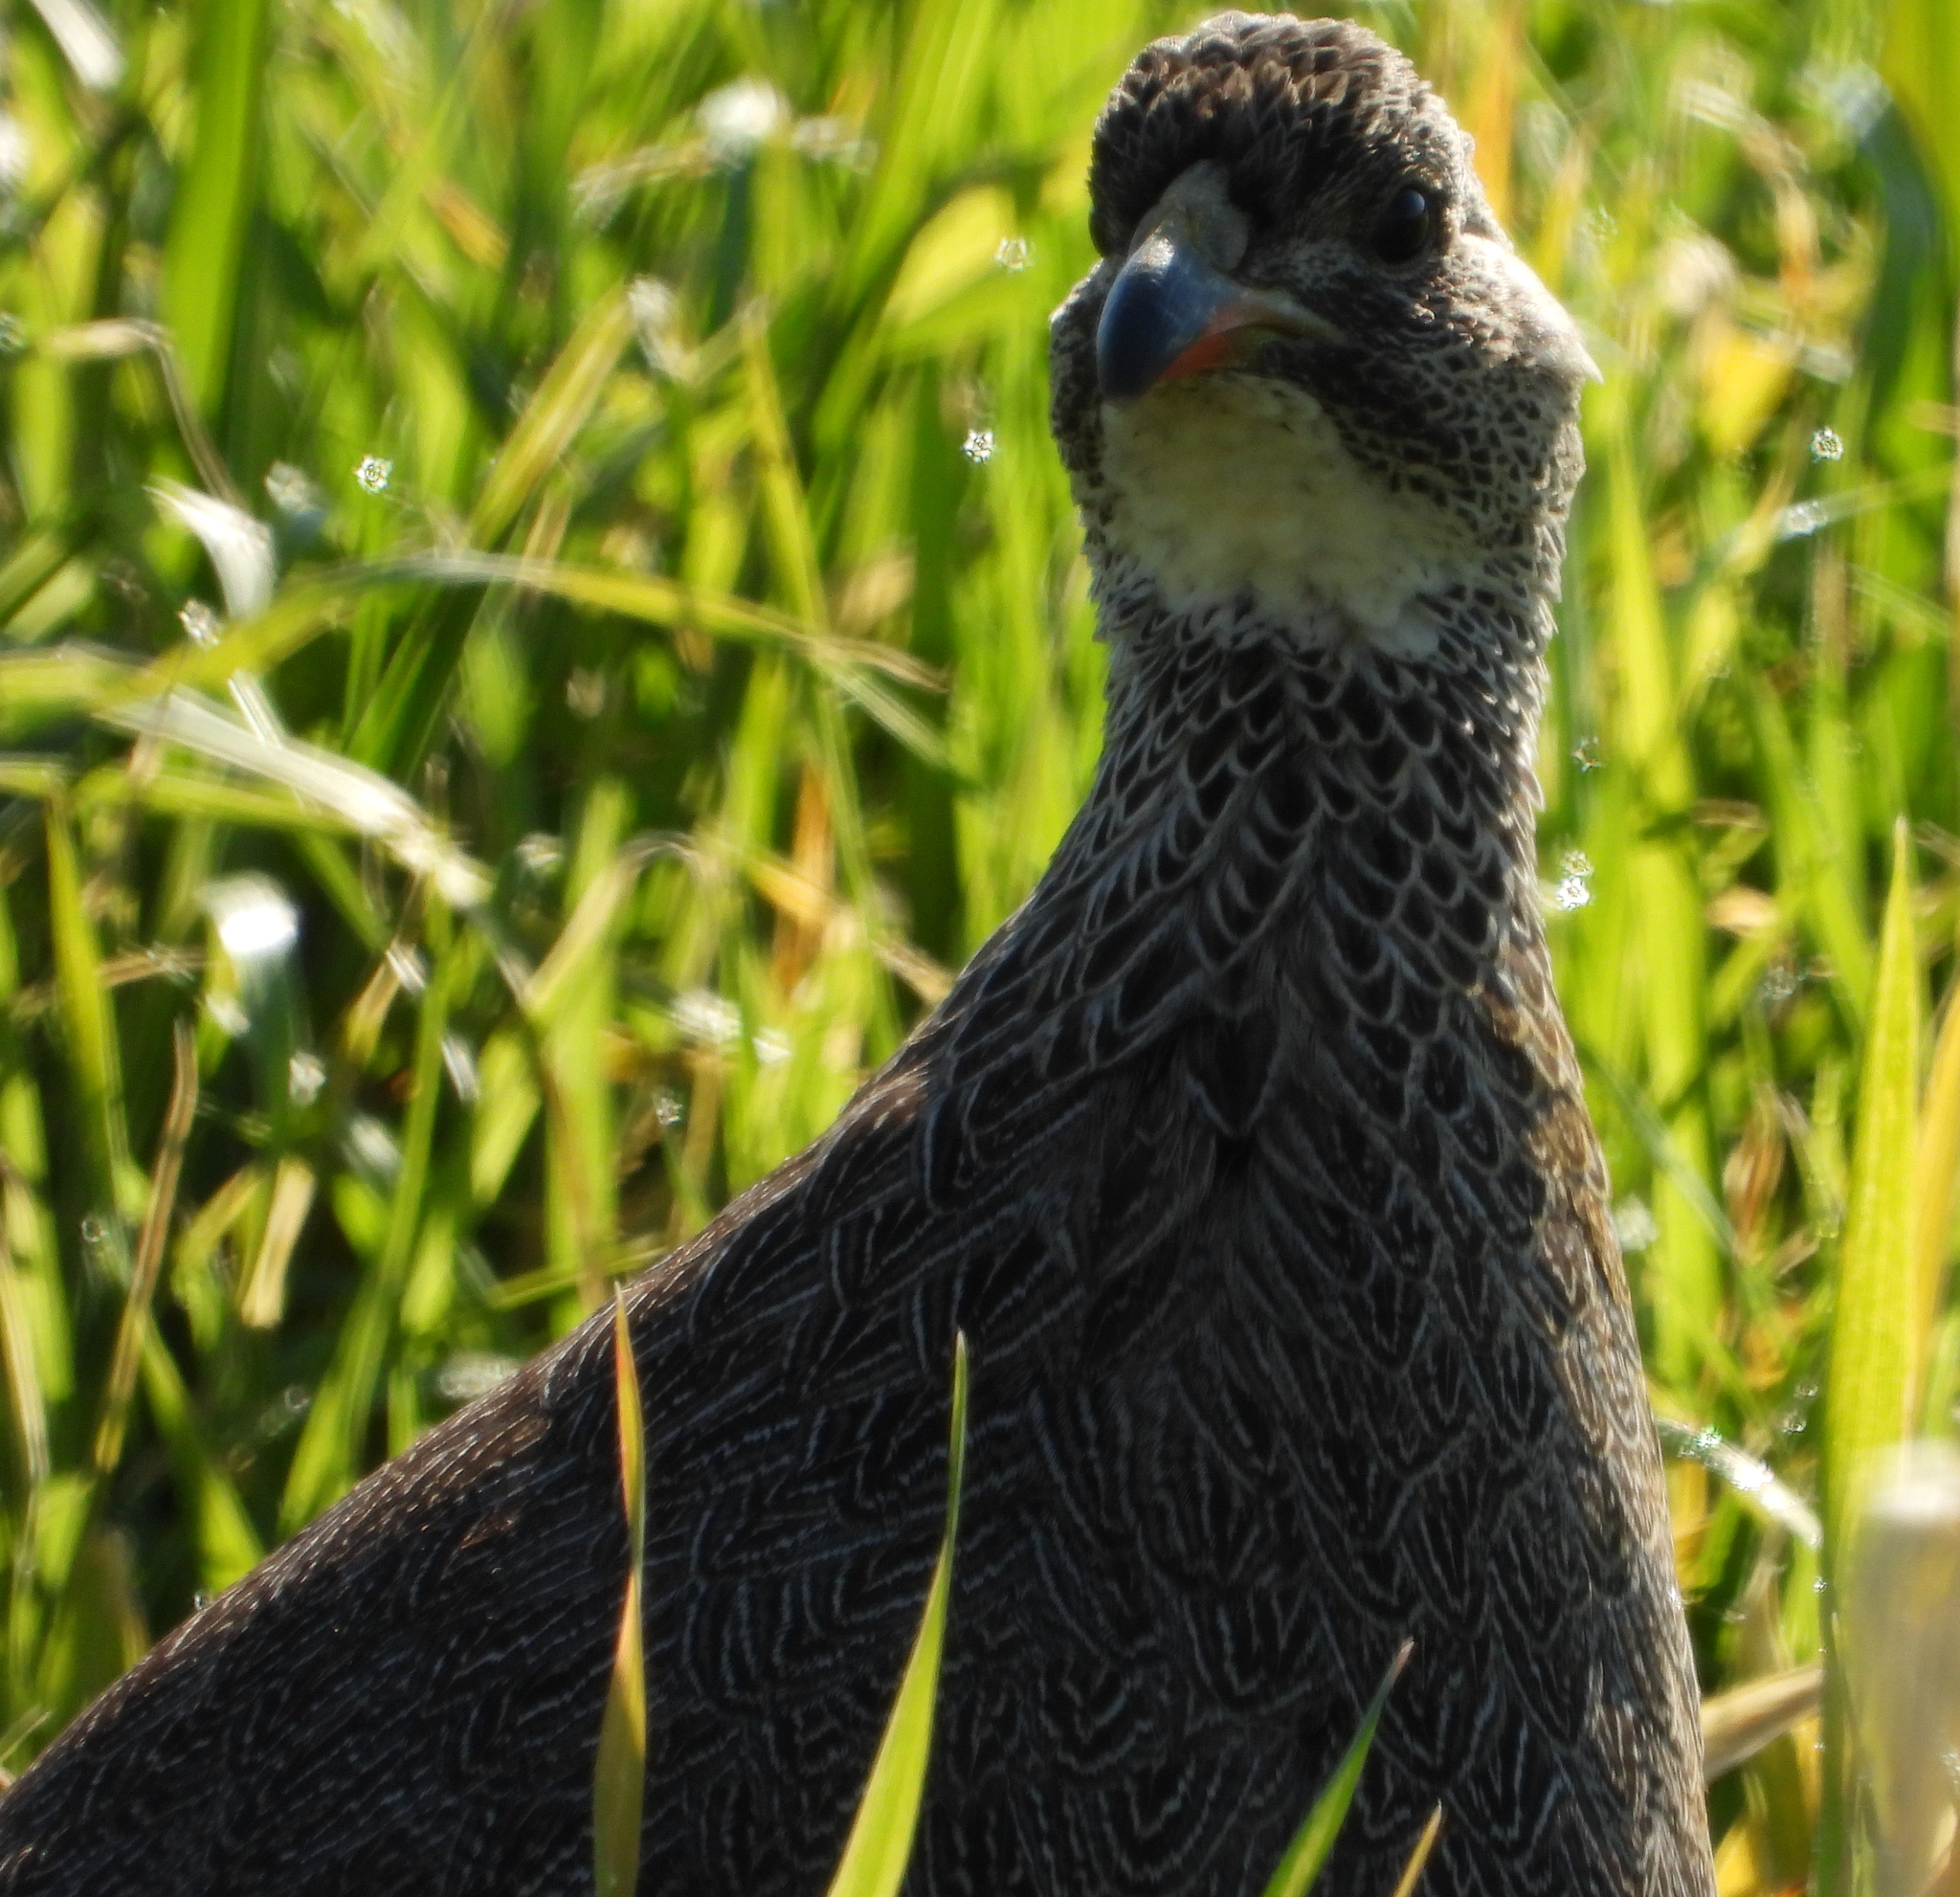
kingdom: Animalia
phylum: Chordata
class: Aves
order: Galliformes
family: Phasianidae
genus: Pternistis
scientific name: Pternistis capensis
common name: Cape spurfowl
